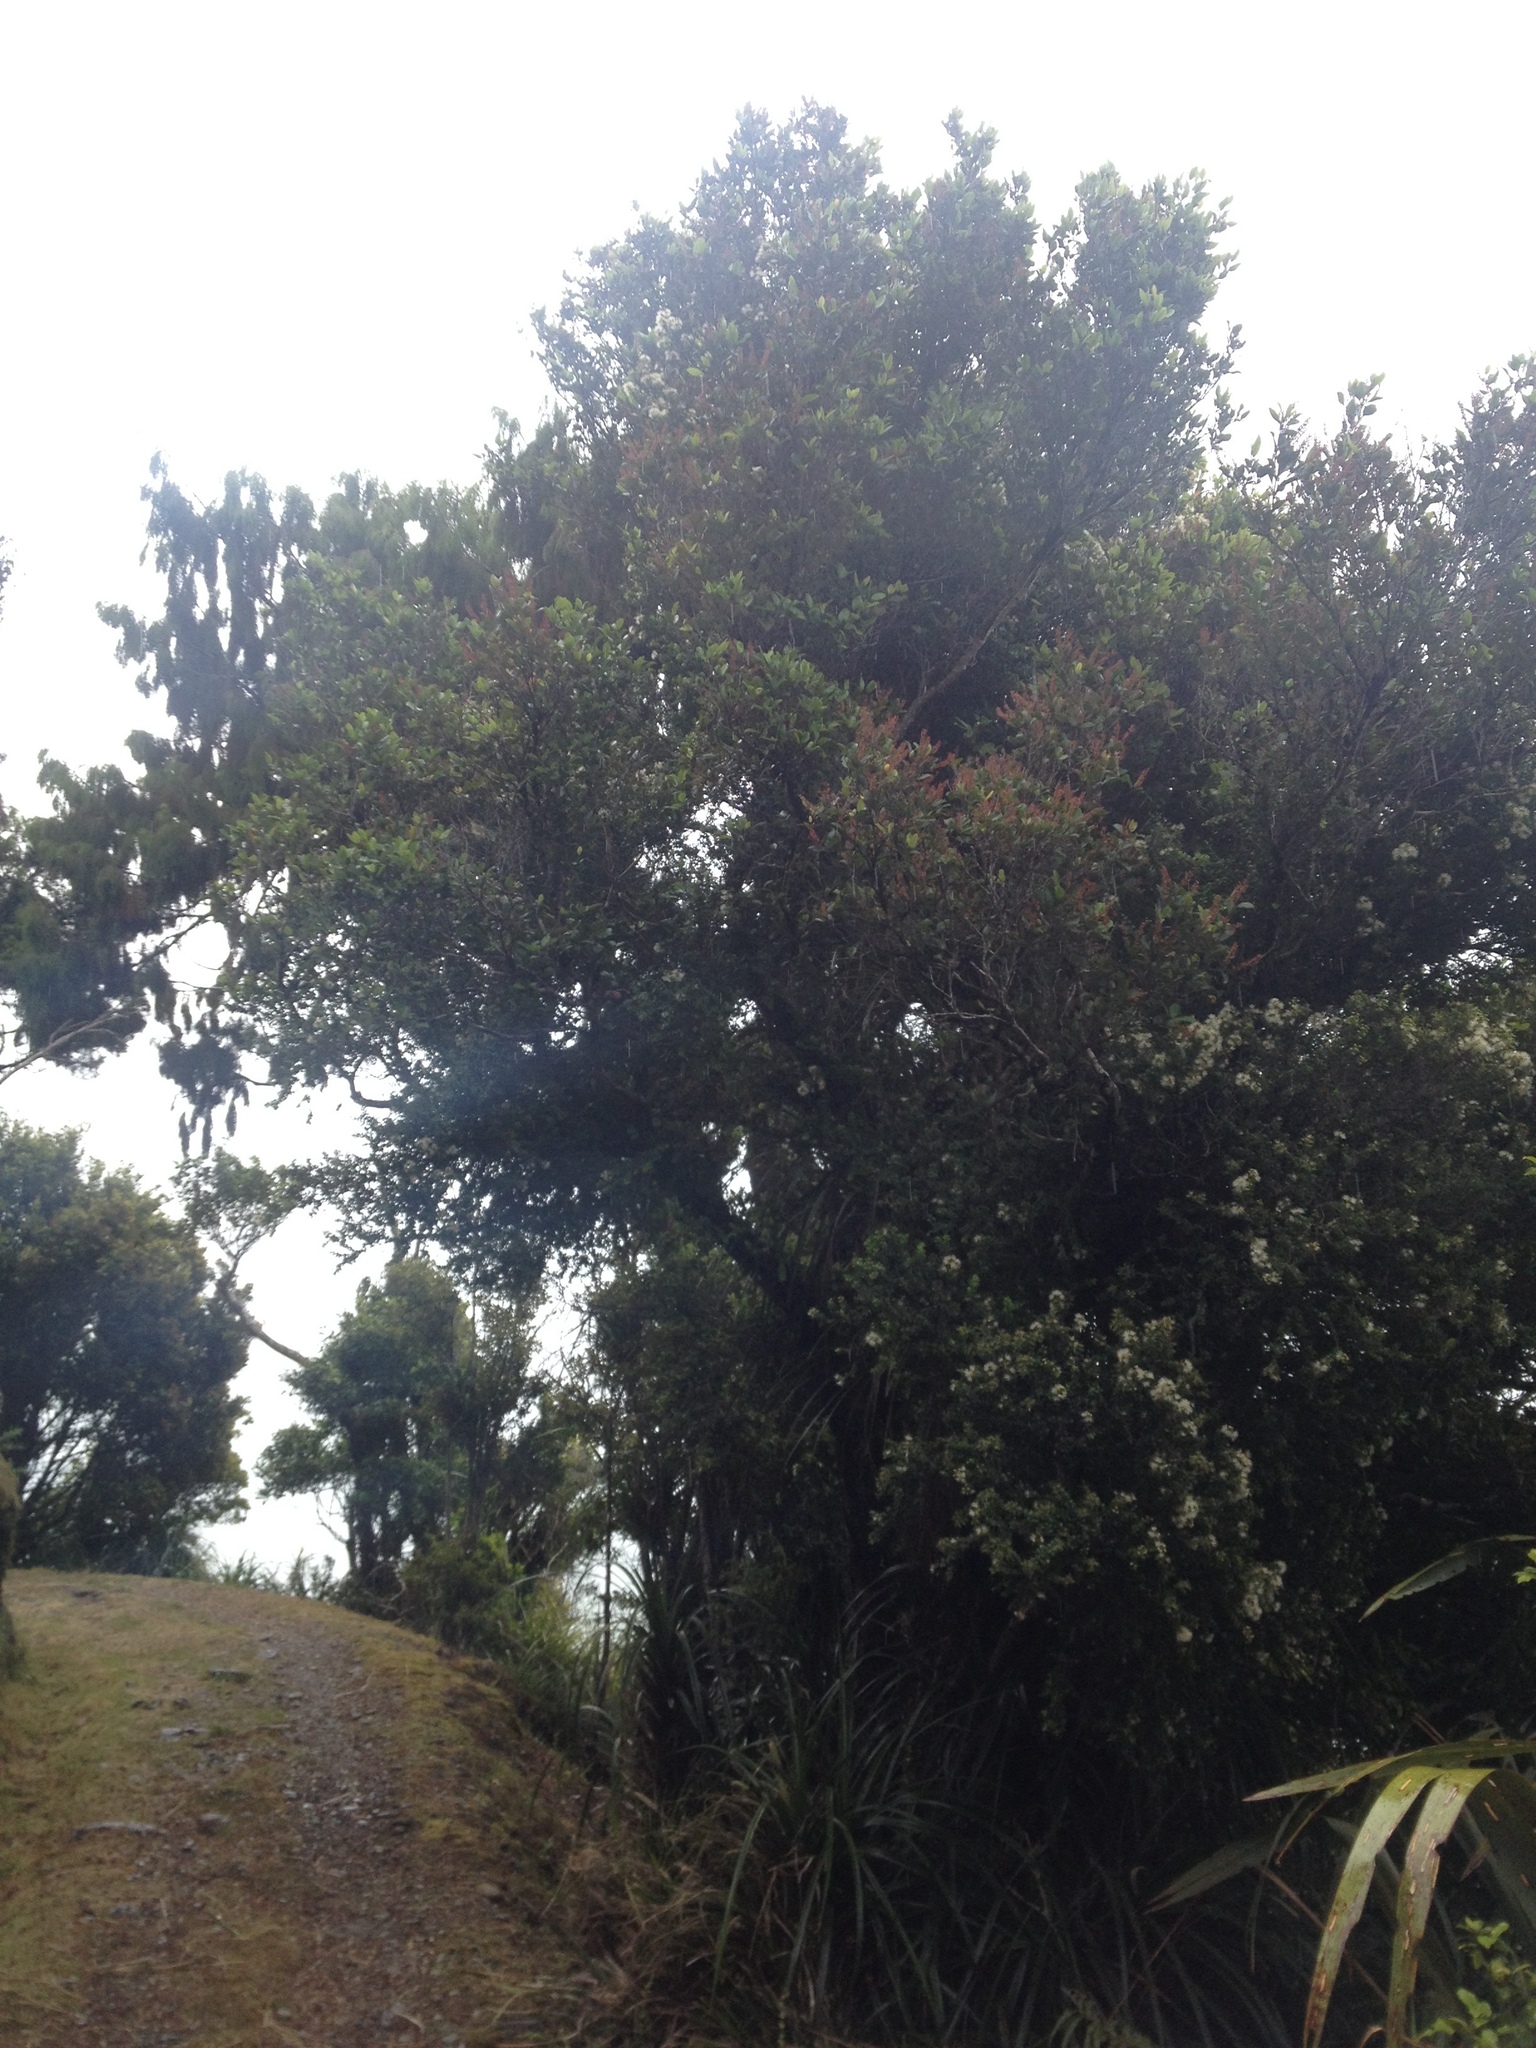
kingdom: Plantae
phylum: Tracheophyta
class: Magnoliopsida
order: Myrtales
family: Myrtaceae
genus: Metrosideros
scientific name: Metrosideros perforata
